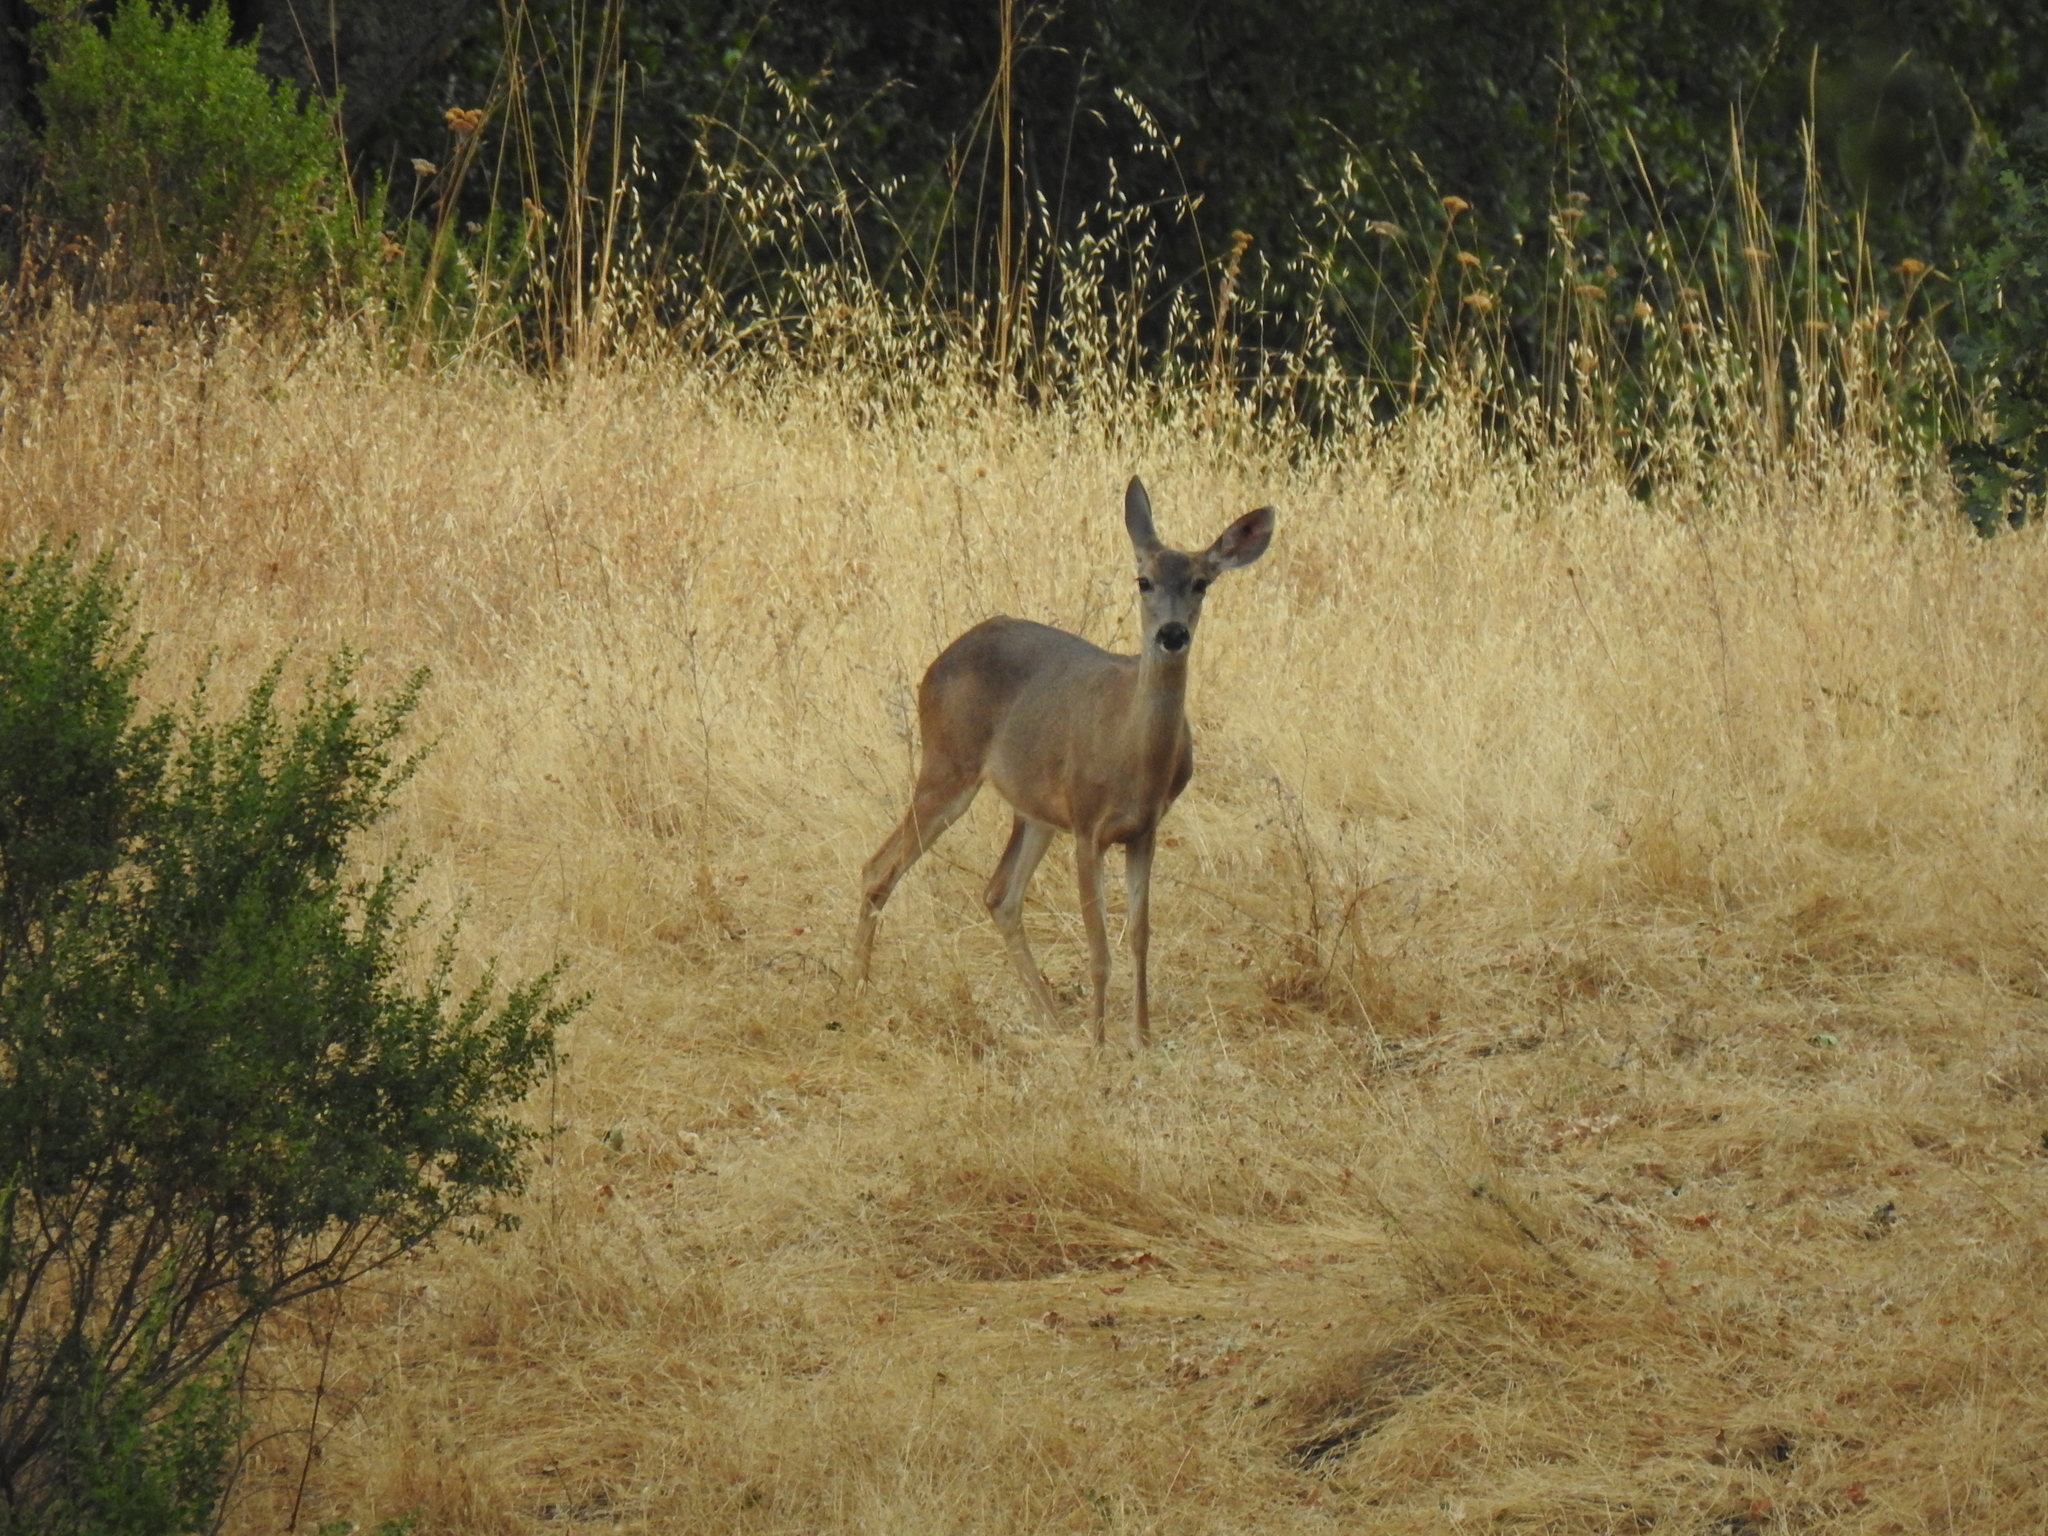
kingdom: Animalia
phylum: Chordata
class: Mammalia
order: Artiodactyla
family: Cervidae
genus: Odocoileus
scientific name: Odocoileus hemionus
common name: Mule deer
